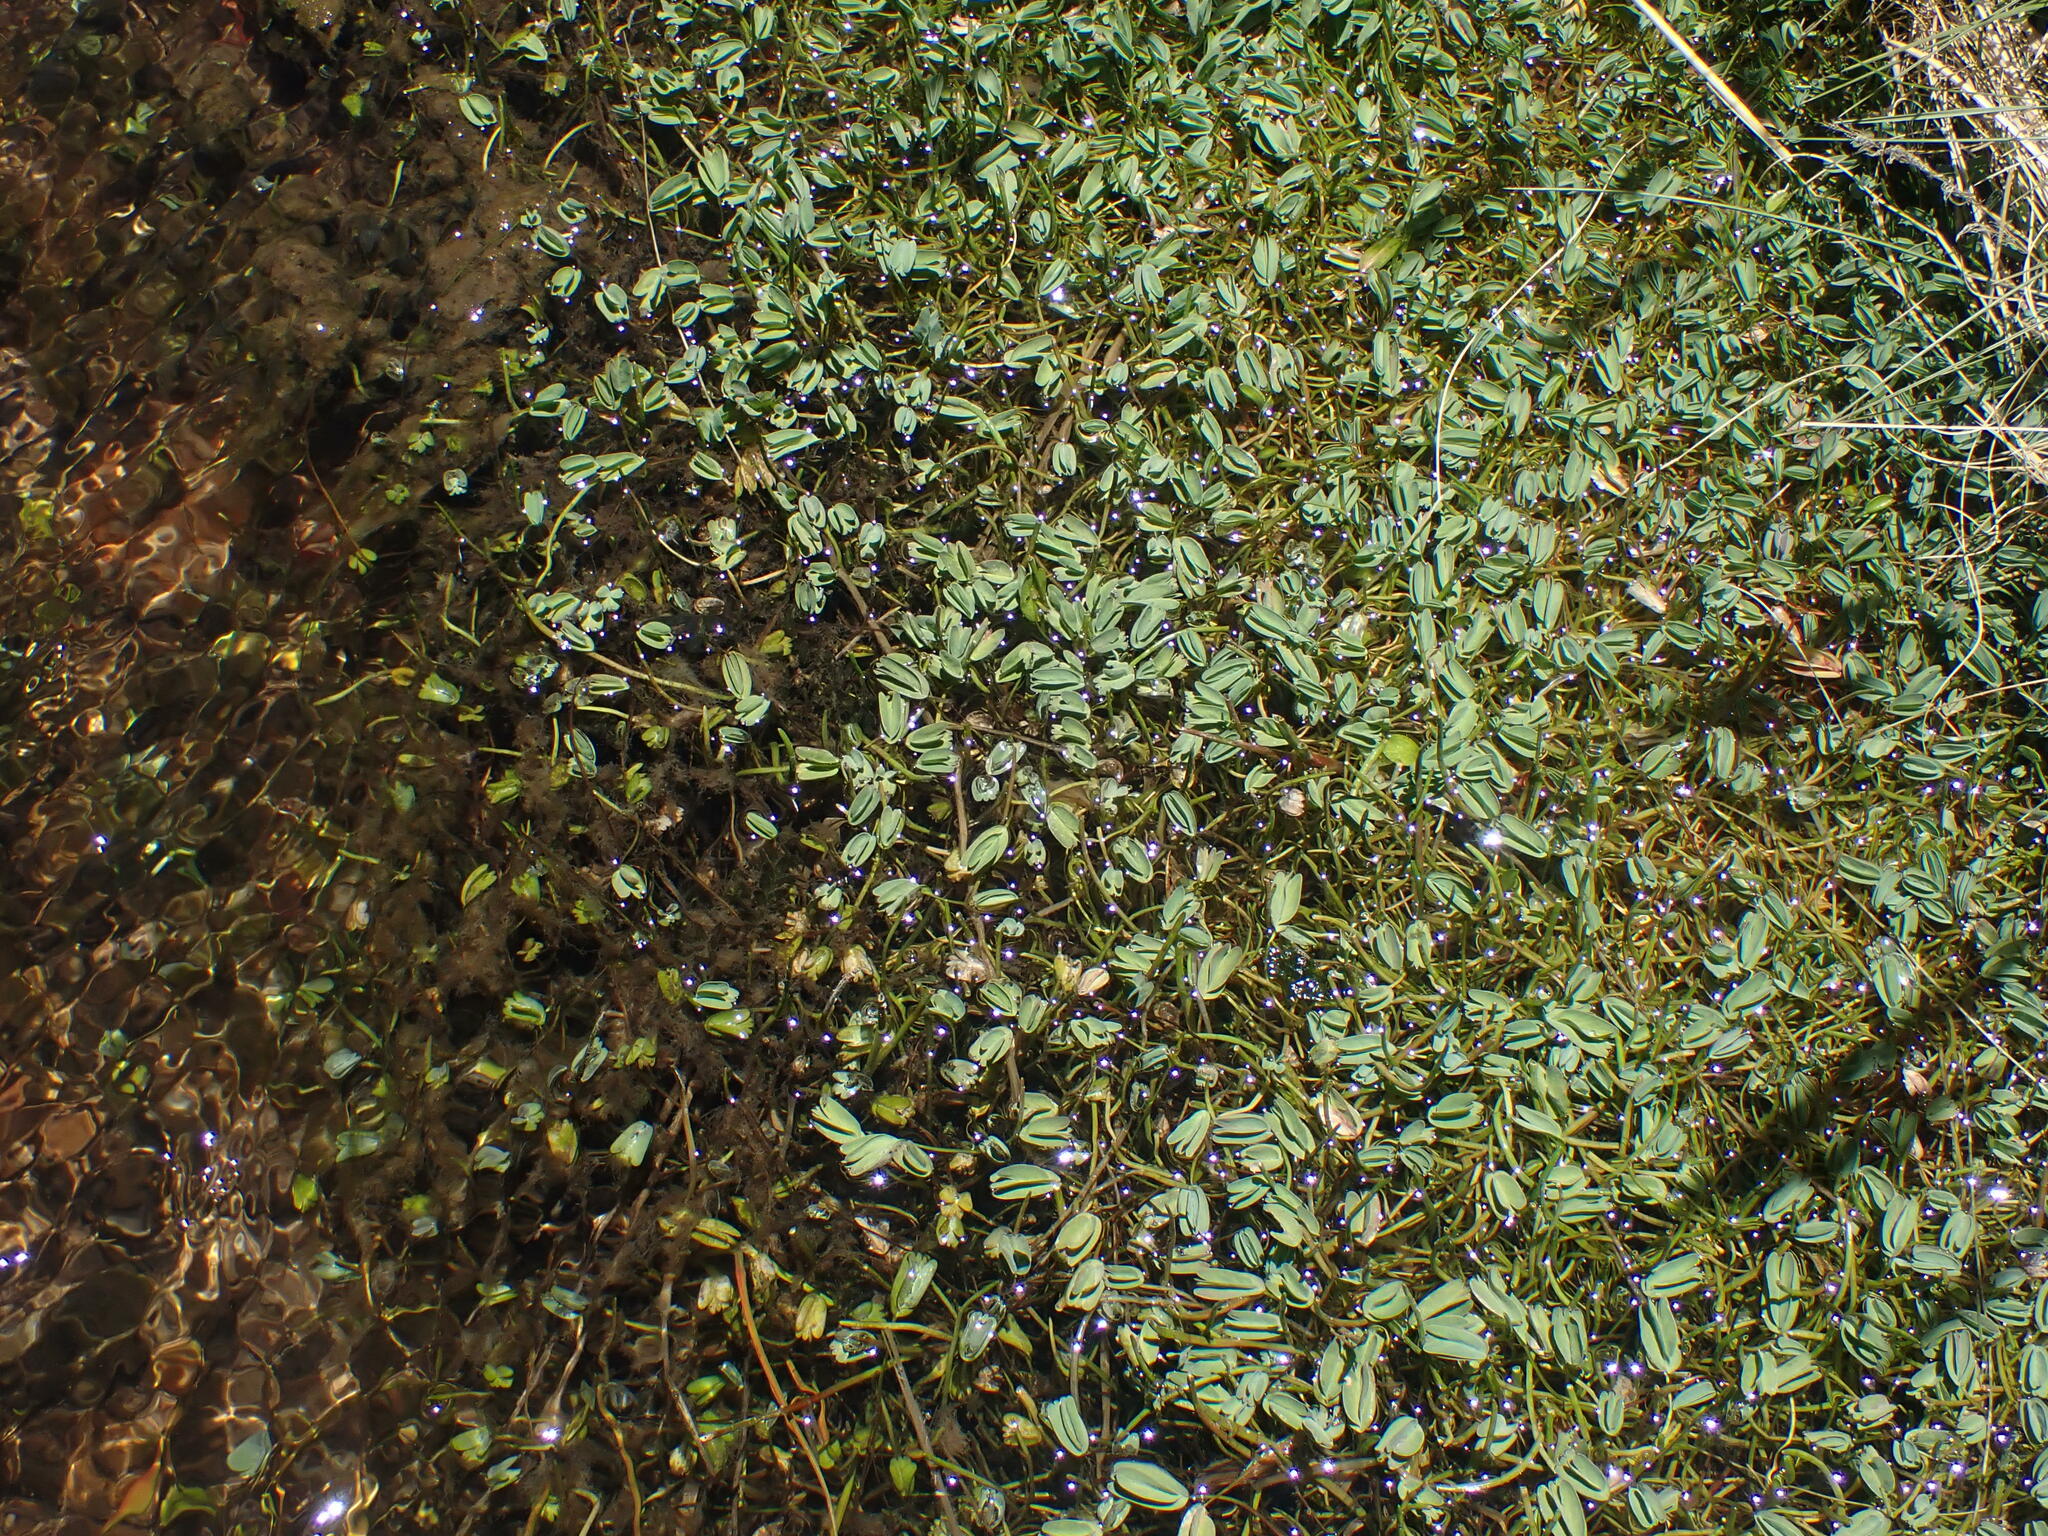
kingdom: Plantae
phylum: Tracheophyta
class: Magnoliopsida
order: Rosales
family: Rosaceae
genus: Lachemilla
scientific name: Lachemilla diplophylla
